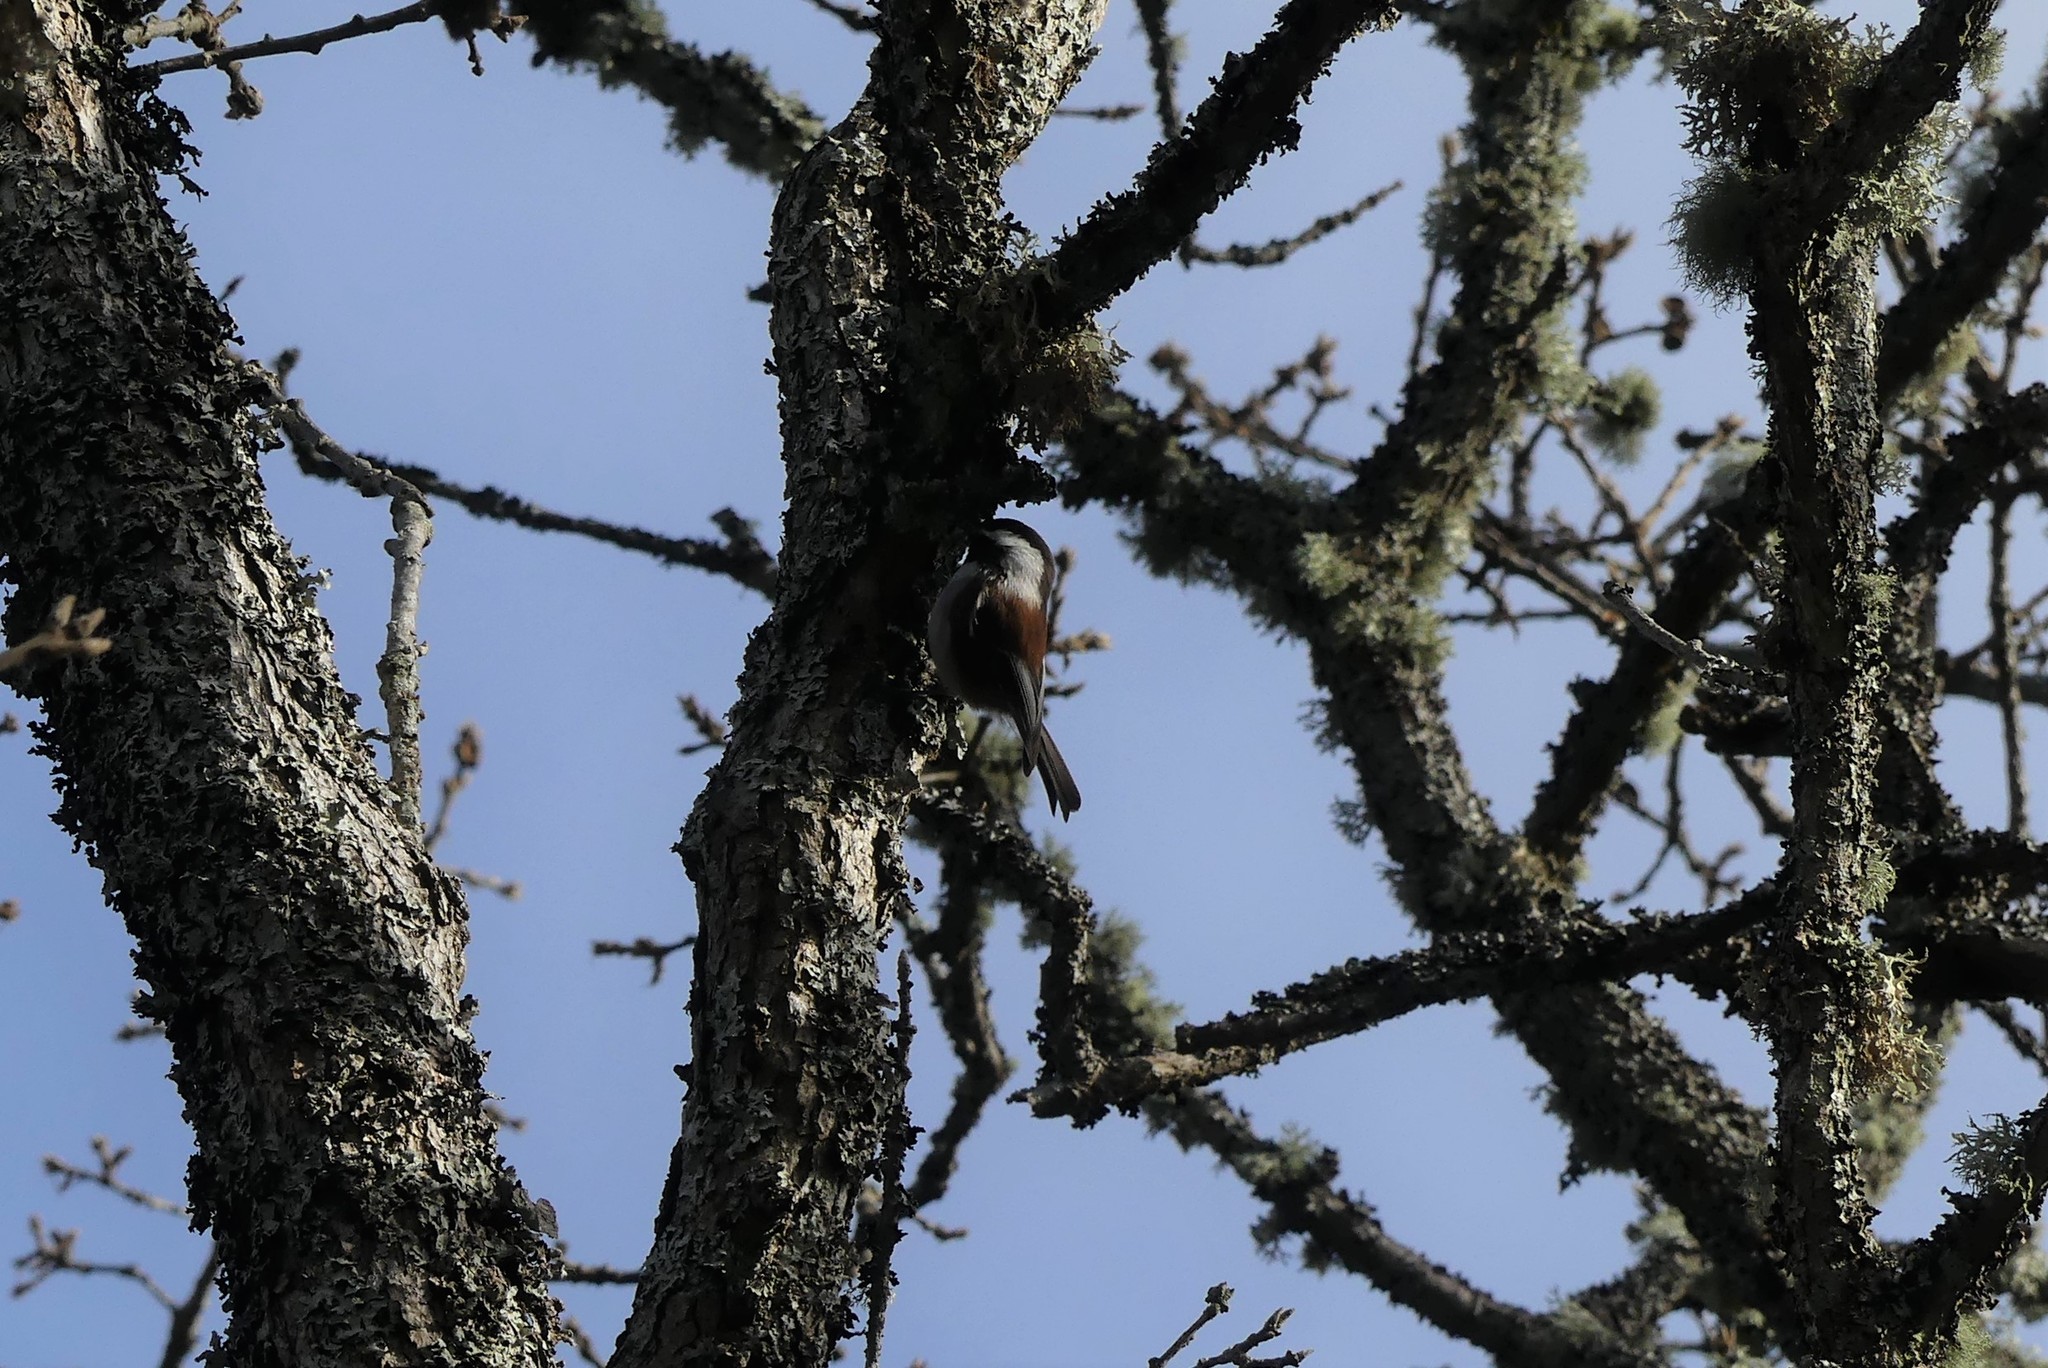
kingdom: Animalia
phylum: Chordata
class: Aves
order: Passeriformes
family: Paridae
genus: Poecile
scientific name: Poecile rufescens
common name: Chestnut-backed chickadee
